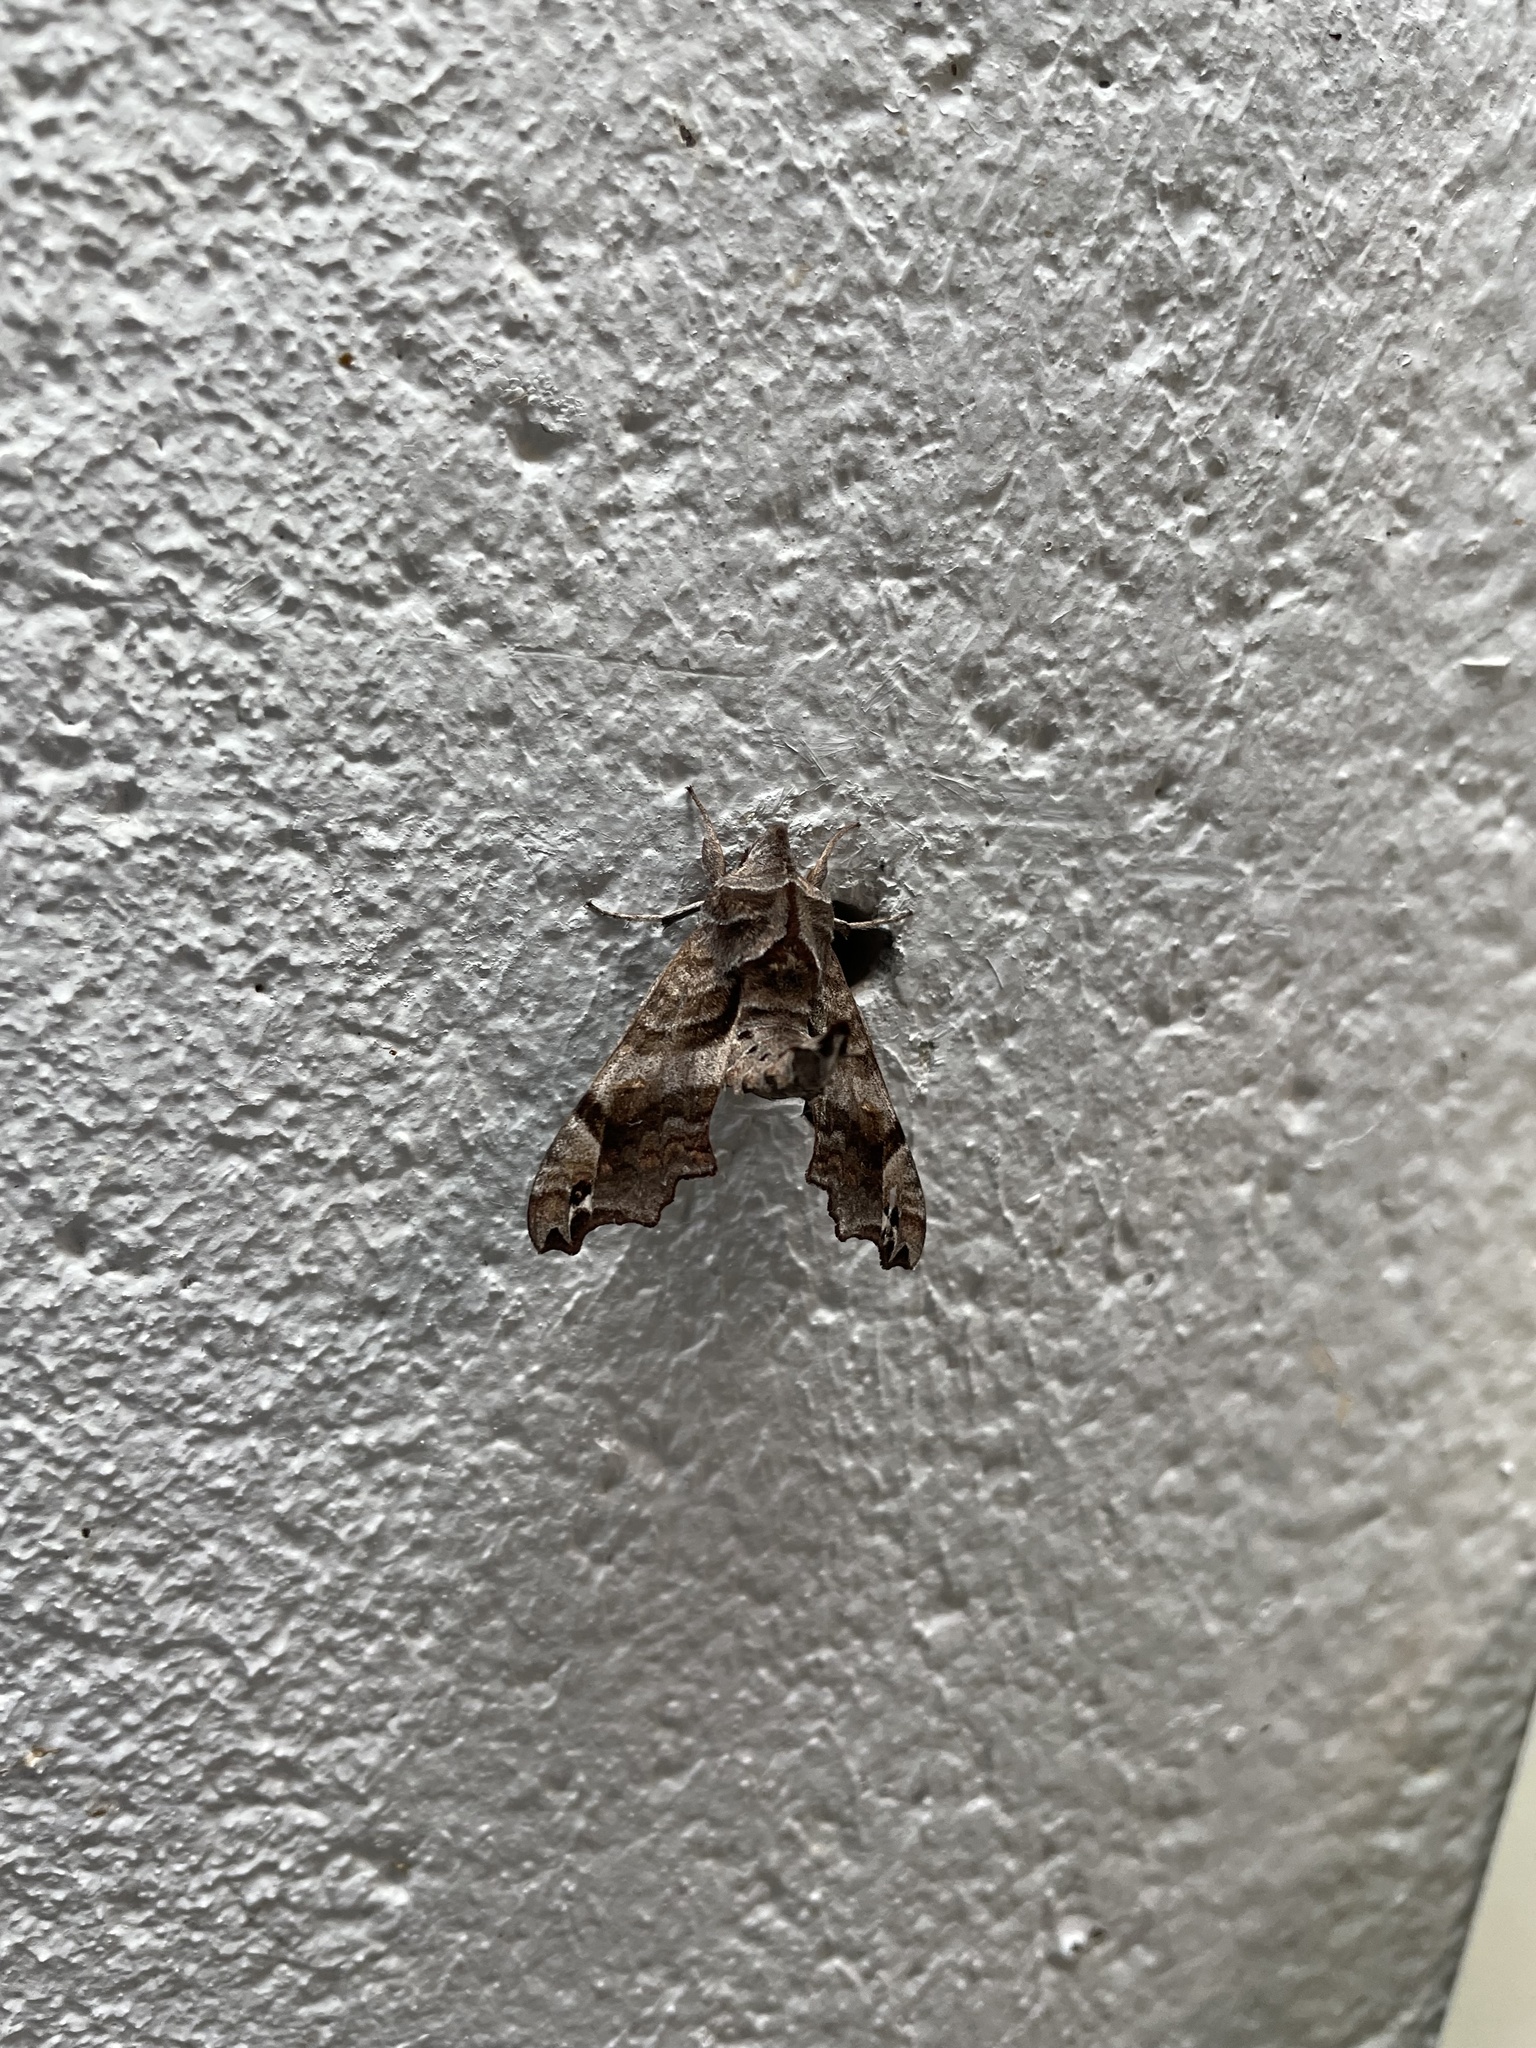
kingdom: Animalia
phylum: Arthropoda
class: Insecta
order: Lepidoptera
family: Sphingidae
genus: Deidamia
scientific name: Deidamia inscriptum
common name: Lettered sphinx
